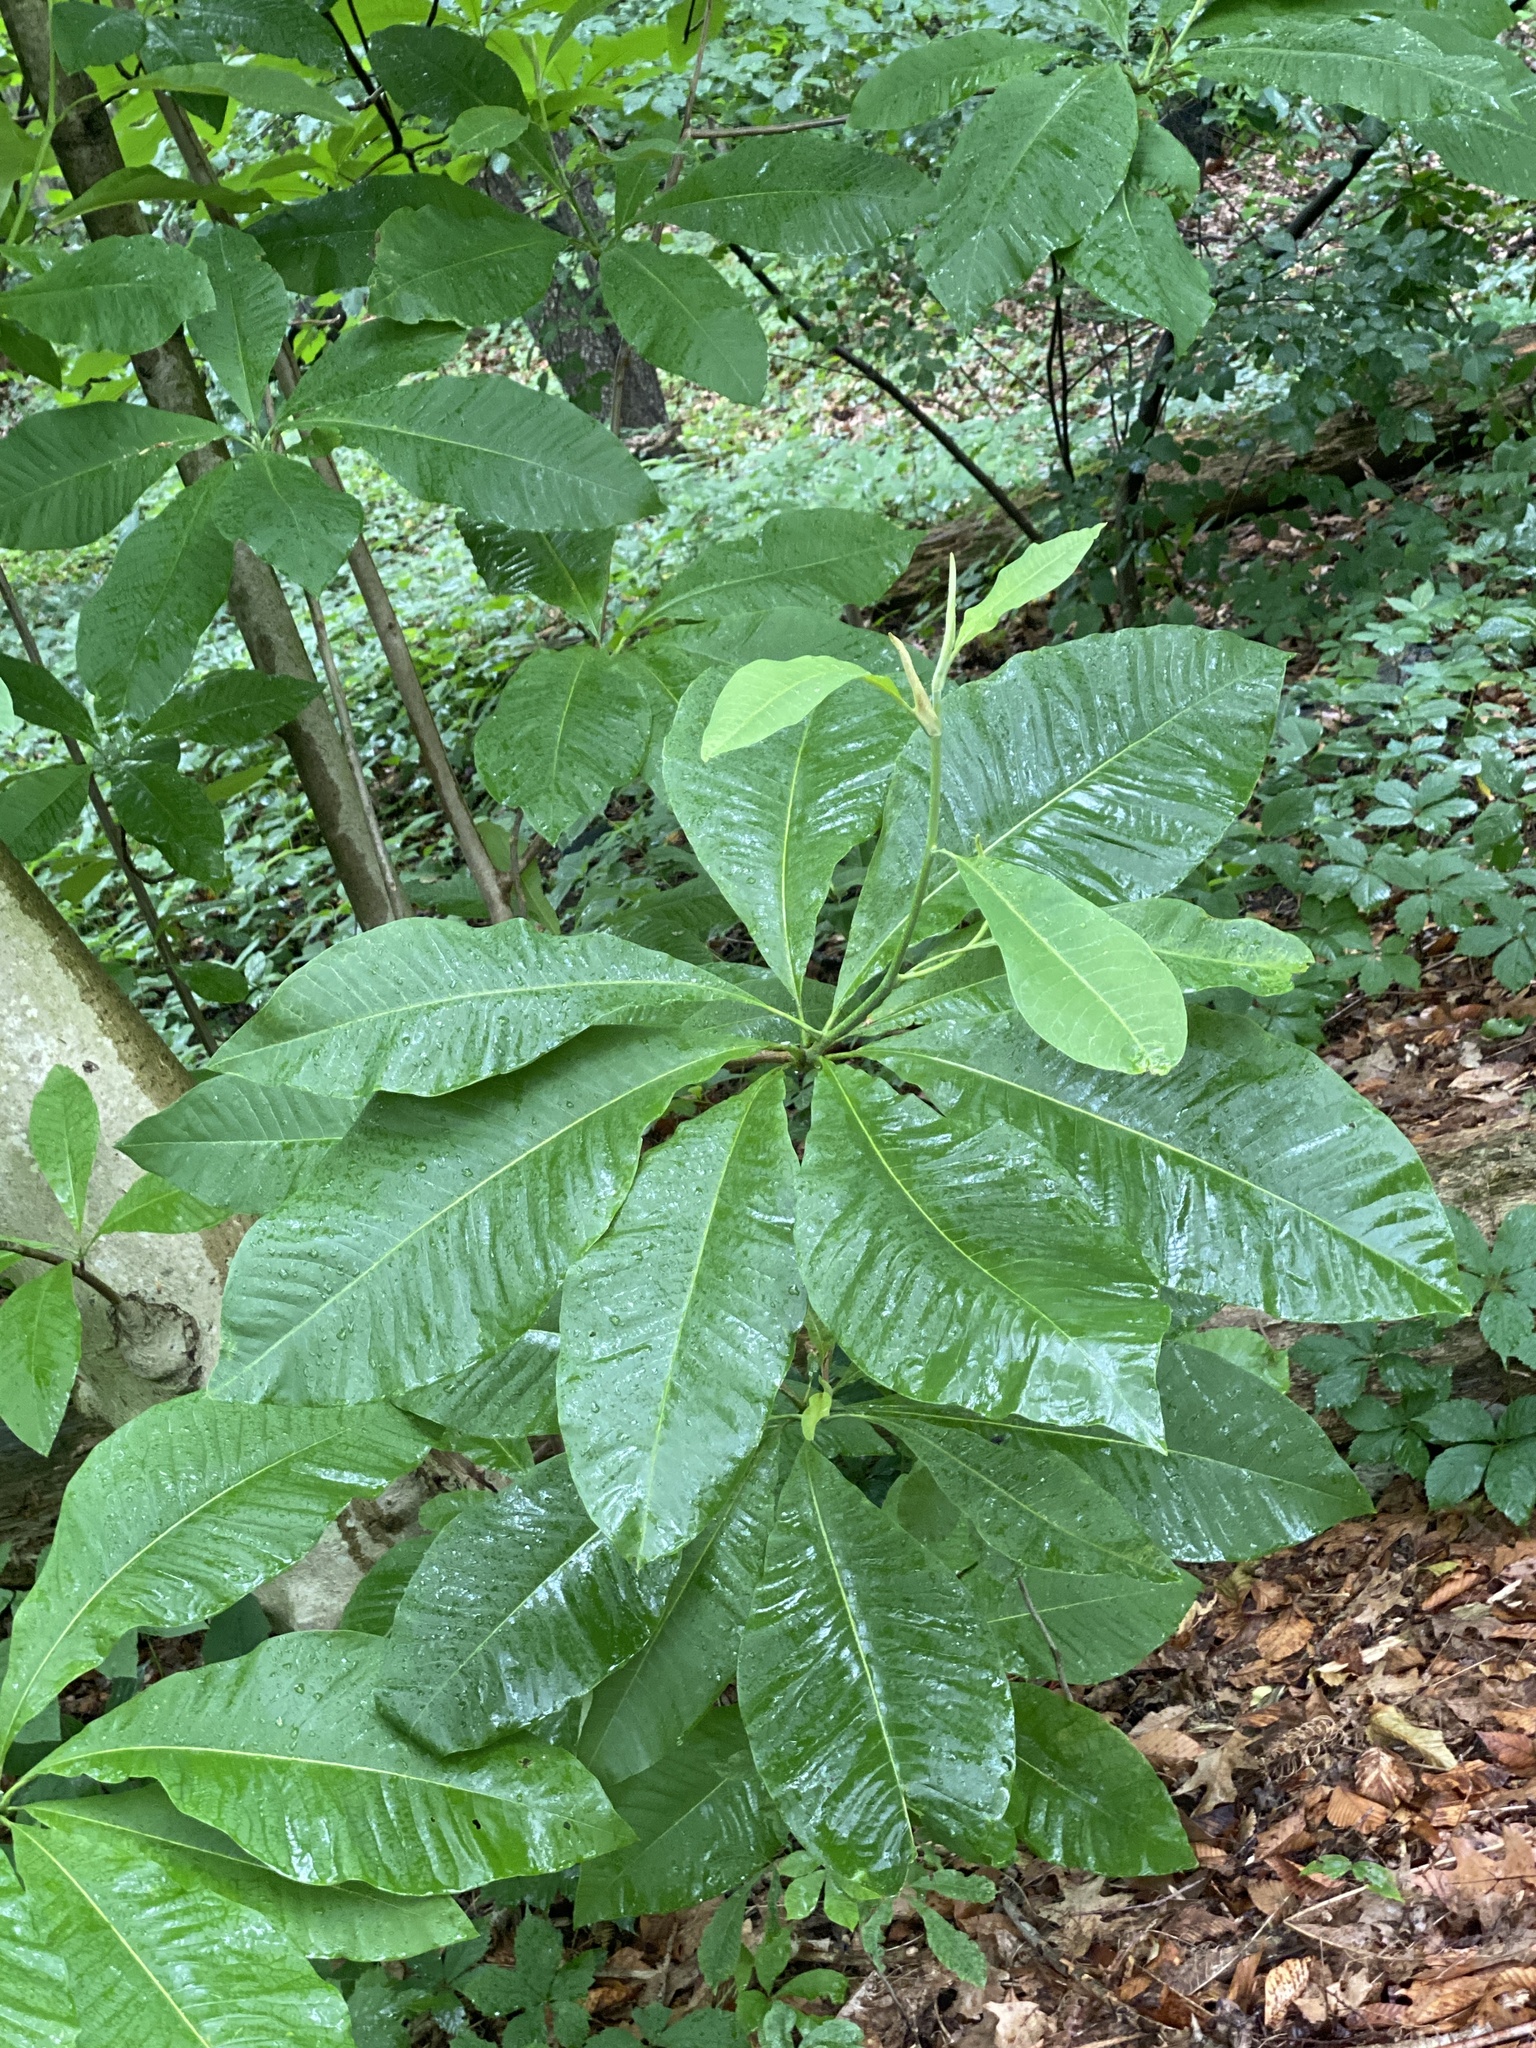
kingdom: Plantae
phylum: Tracheophyta
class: Magnoliopsida
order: Magnoliales
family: Magnoliaceae
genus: Magnolia
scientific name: Magnolia tripetala
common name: Umbrella magnolia
